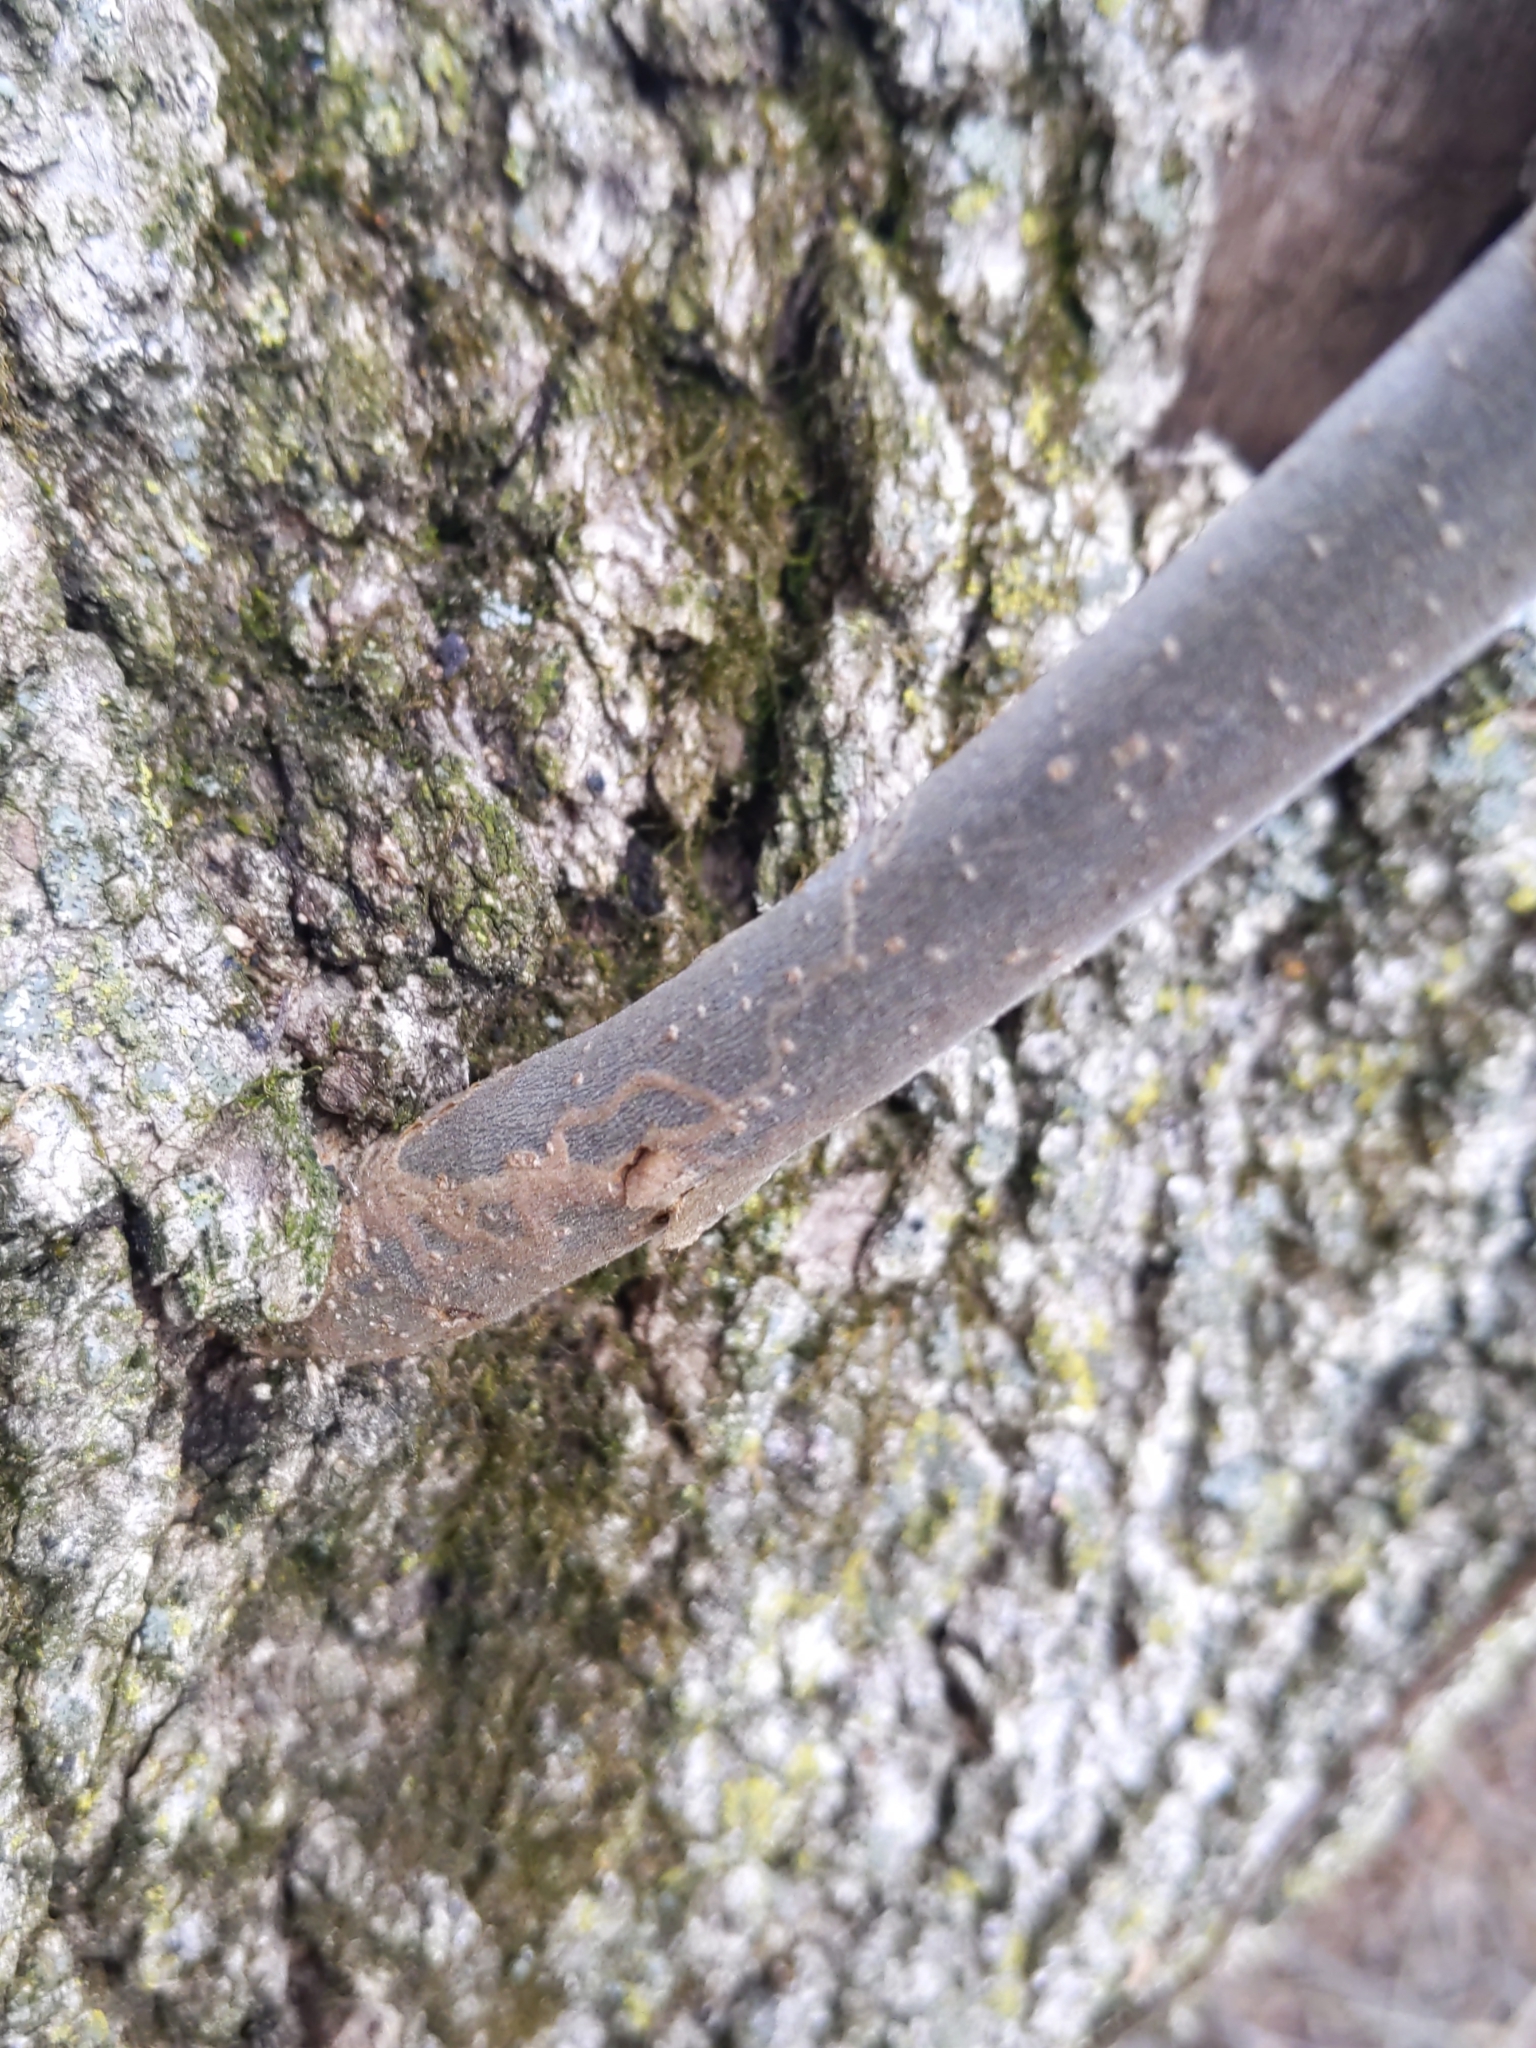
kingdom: Animalia
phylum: Arthropoda
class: Insecta
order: Lepidoptera
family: Gracillariidae
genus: Marmara
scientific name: Marmara fraxinicola
